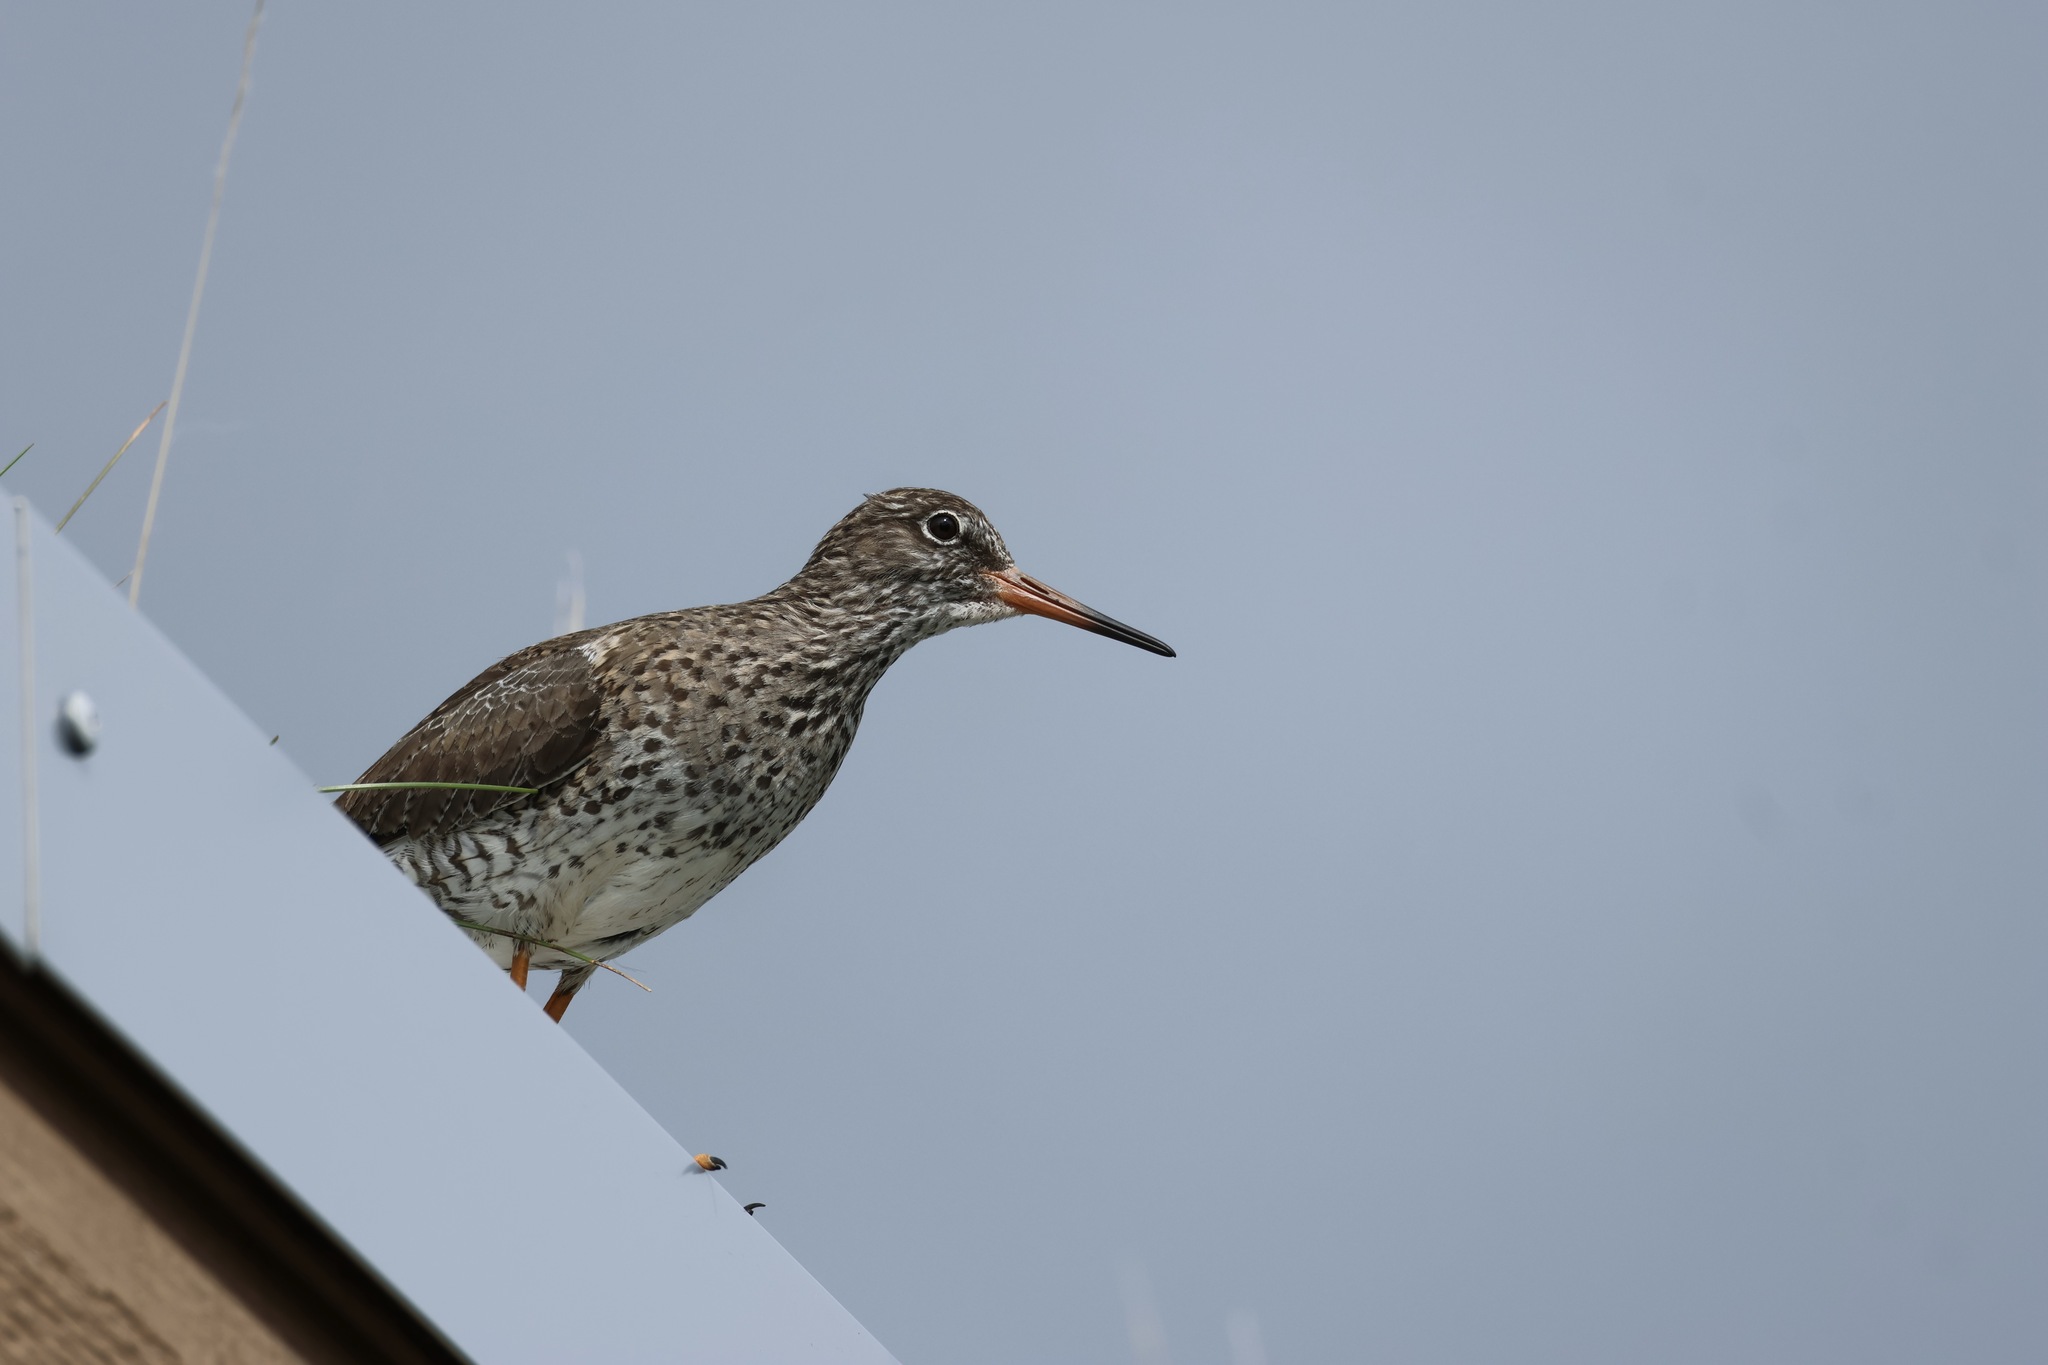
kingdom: Animalia
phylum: Chordata
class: Aves
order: Charadriiformes
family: Scolopacidae
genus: Tringa
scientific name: Tringa totanus
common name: Common redshank
